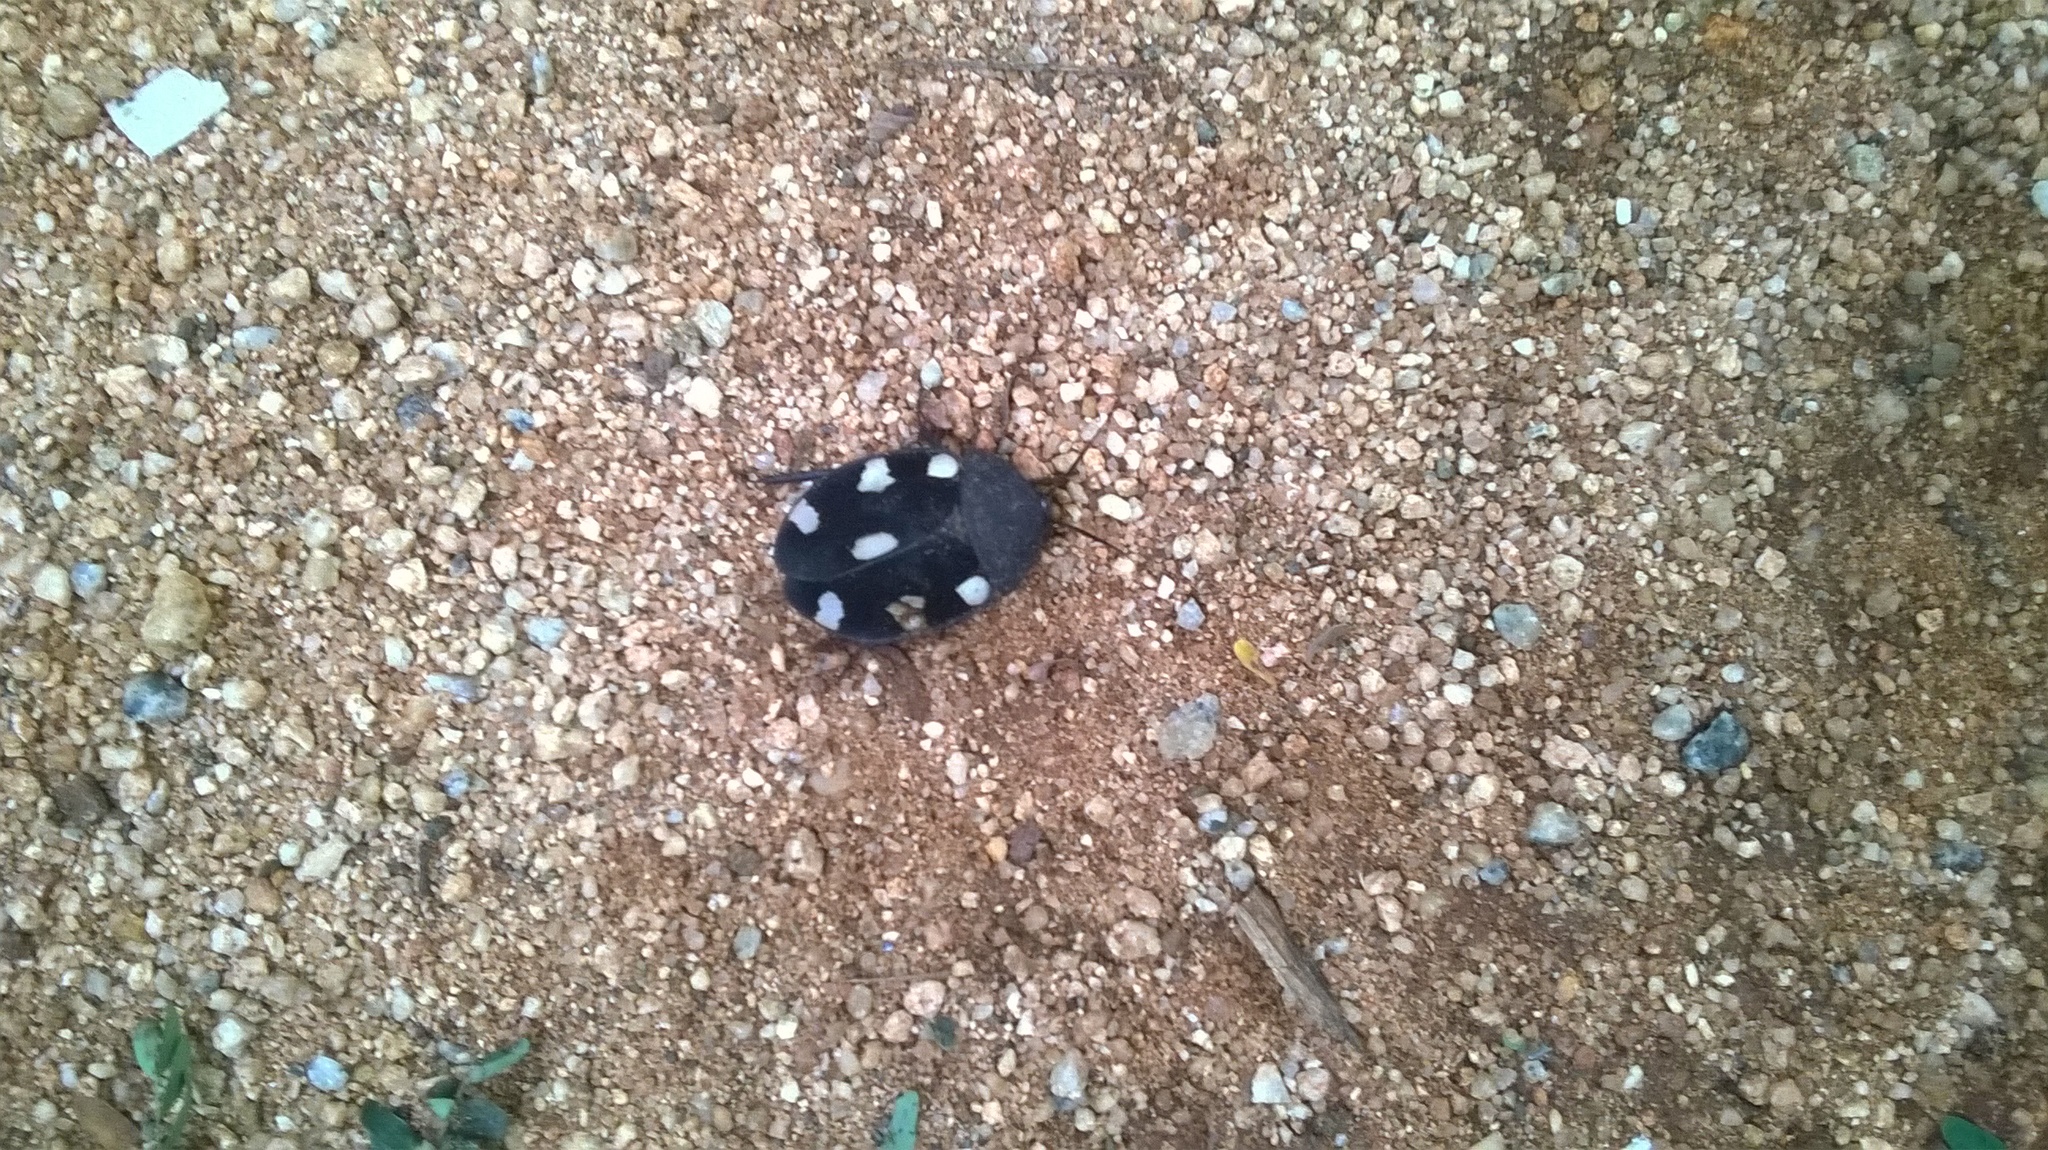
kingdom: Animalia
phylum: Arthropoda
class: Insecta
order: Blattodea
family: Corydiidae
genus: Therea
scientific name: Therea petiveriana
